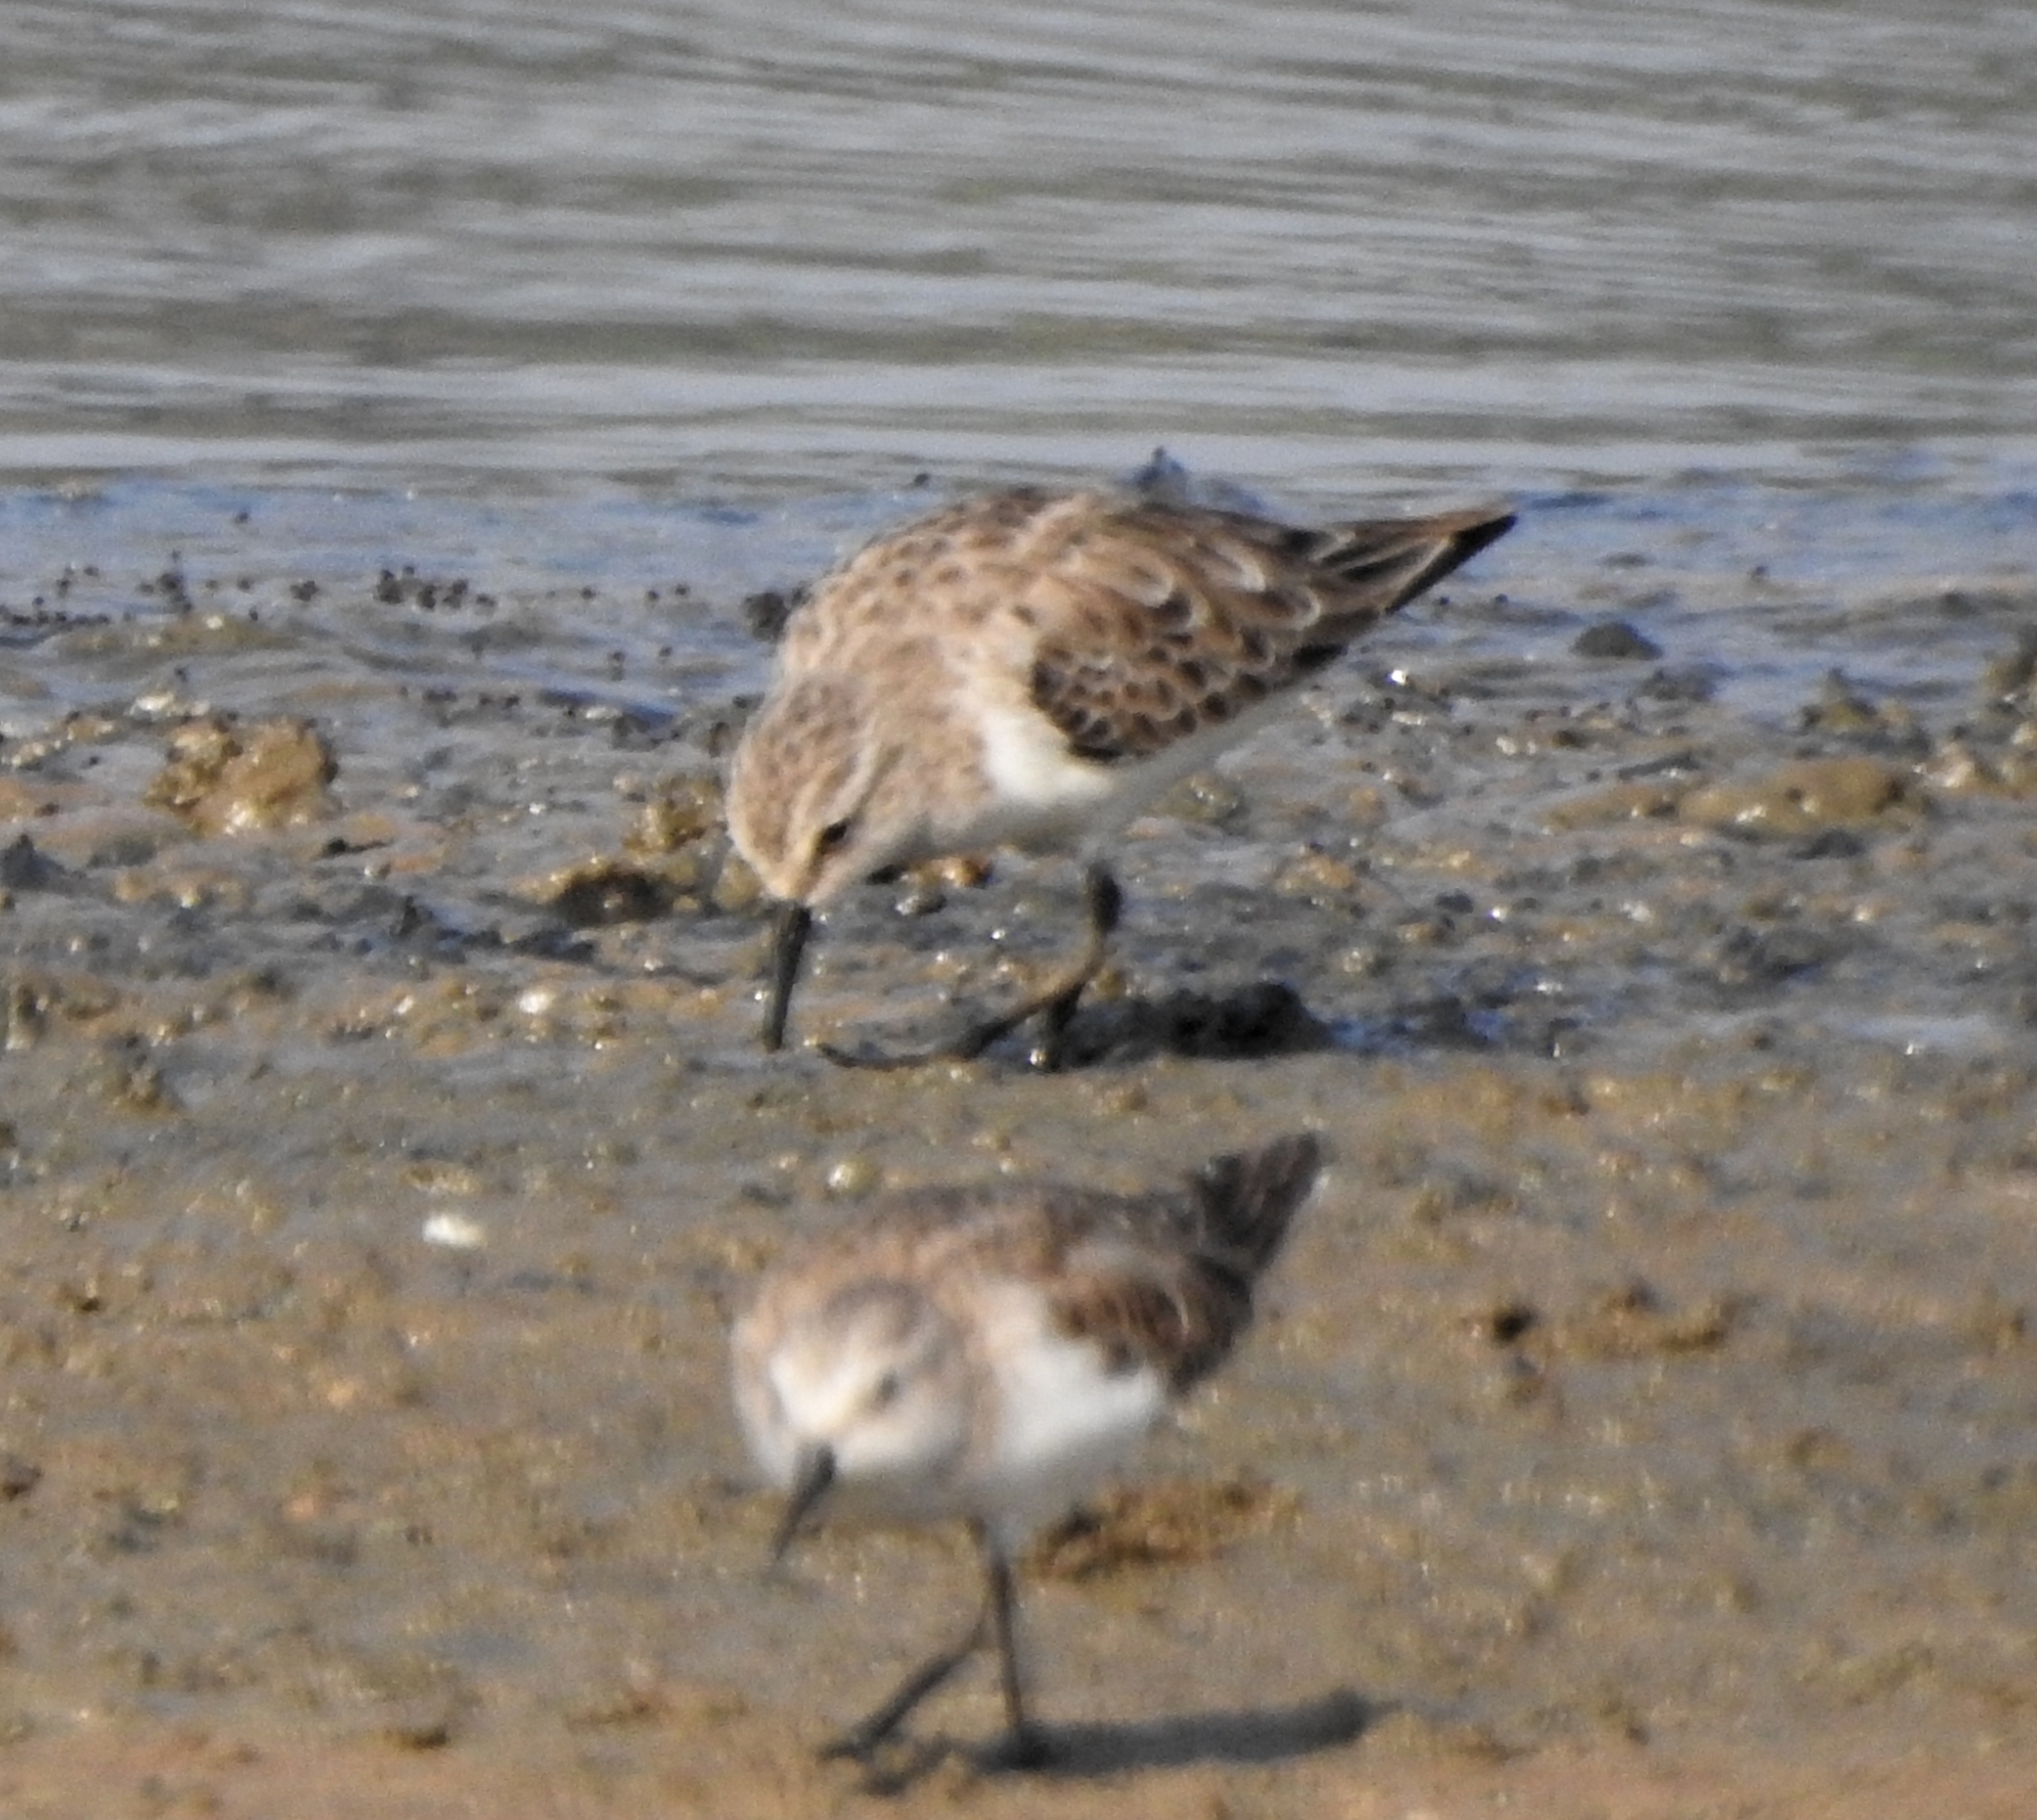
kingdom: Animalia
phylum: Chordata
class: Aves
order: Charadriiformes
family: Scolopacidae
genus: Calidris
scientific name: Calidris minuta
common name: Little stint
